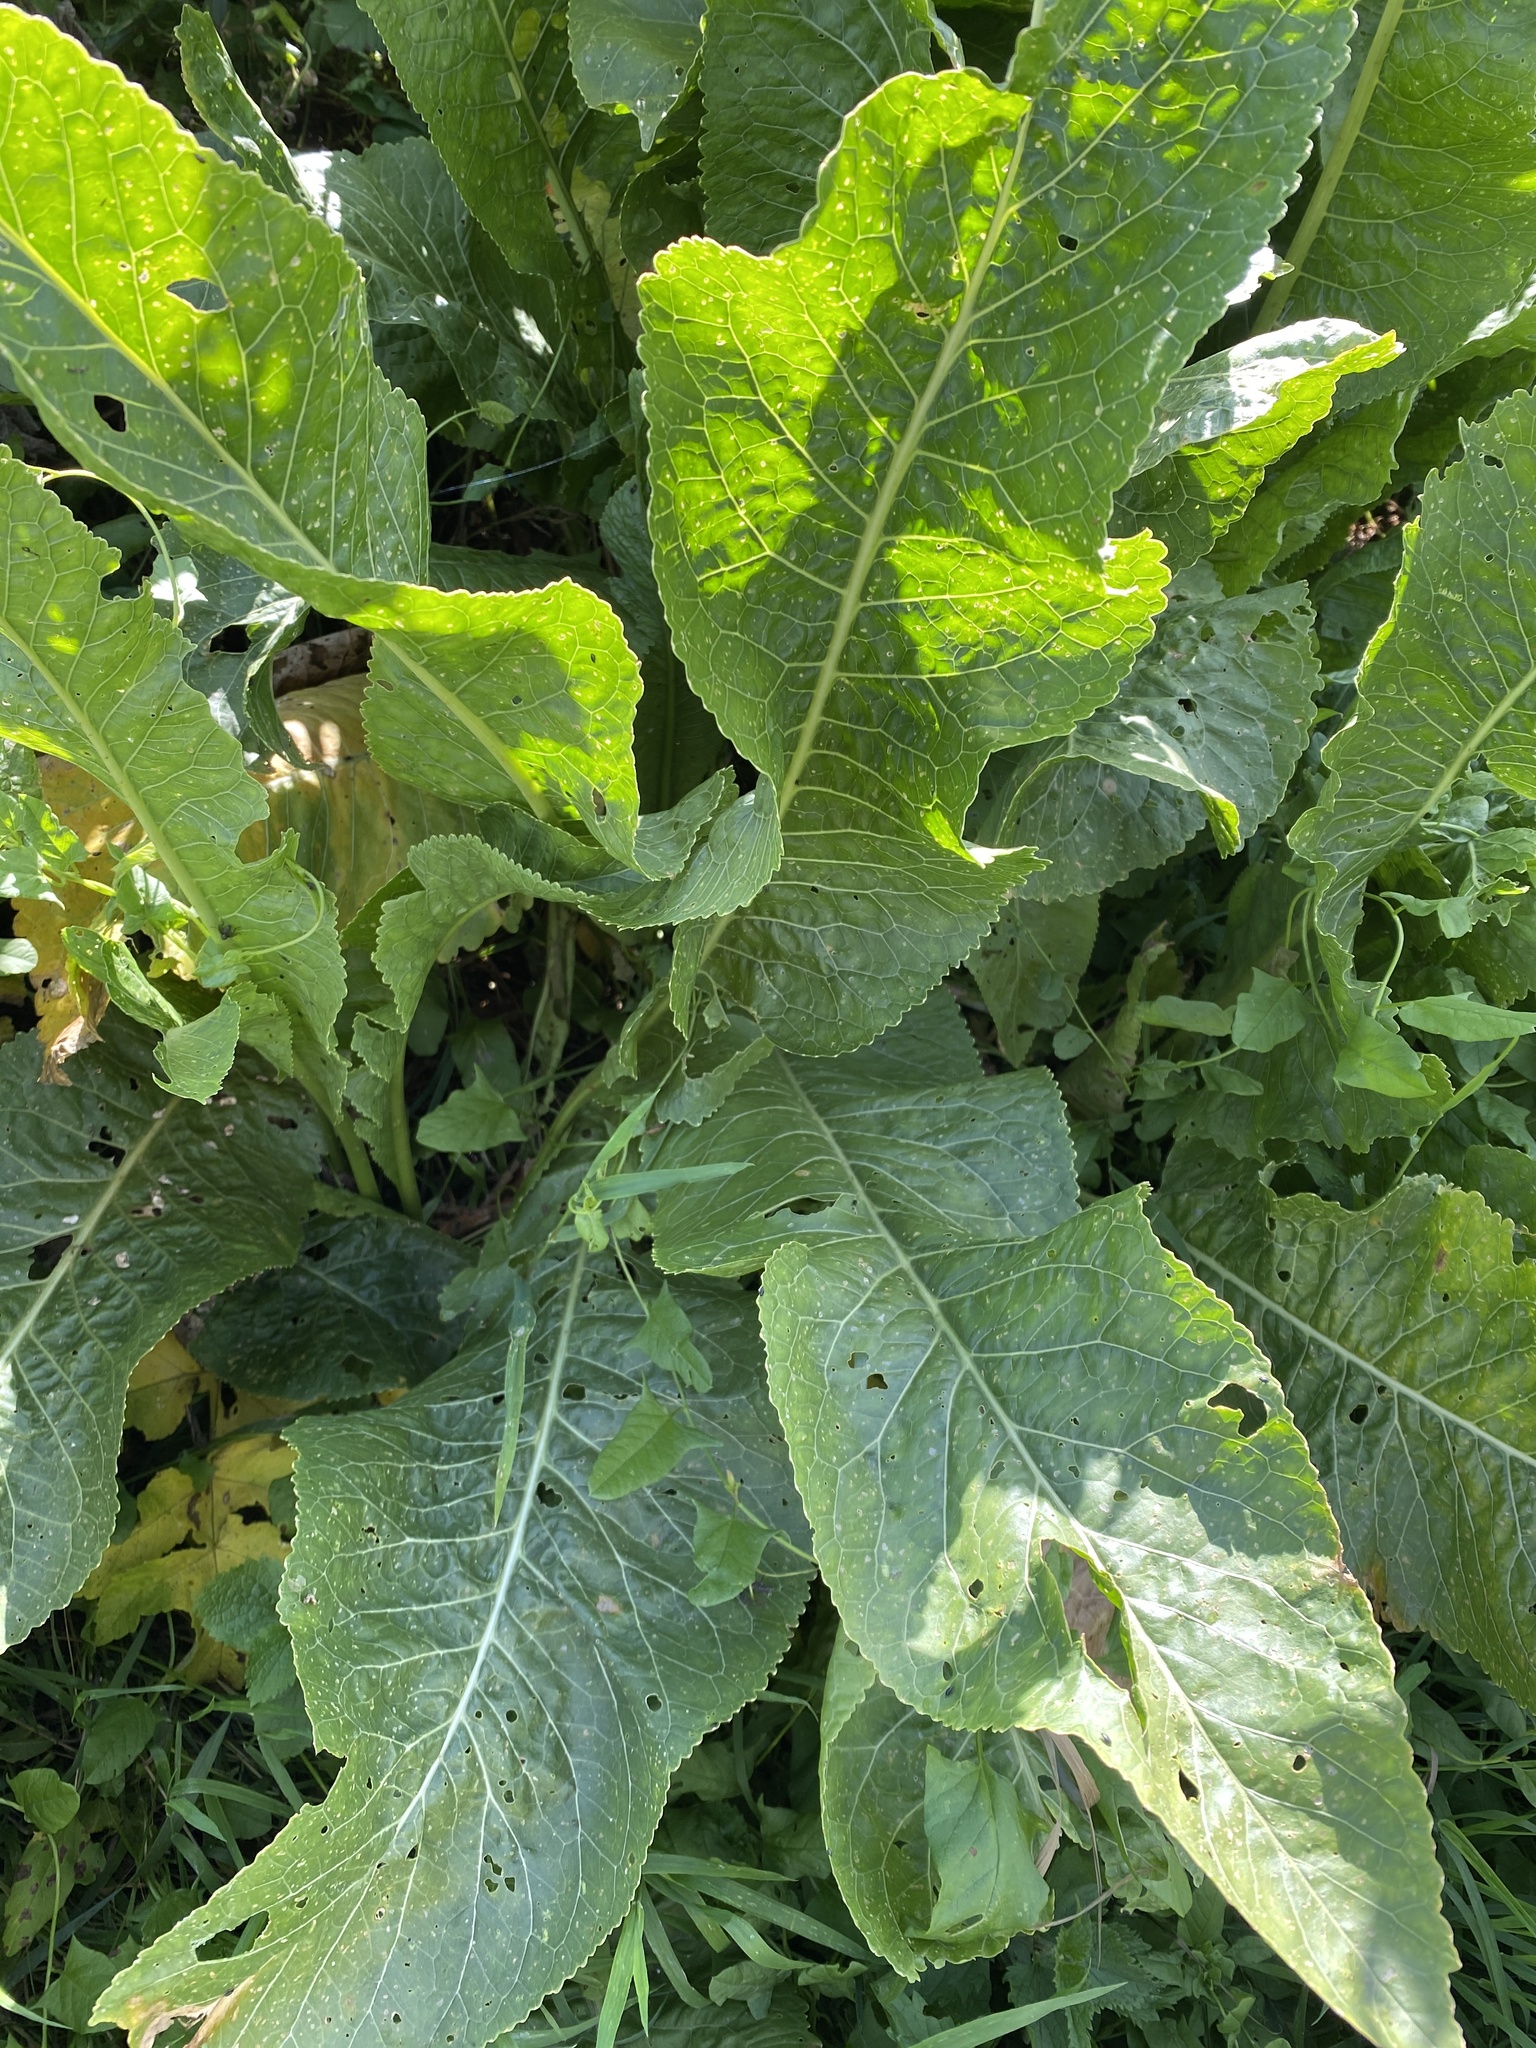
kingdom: Plantae
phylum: Tracheophyta
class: Magnoliopsida
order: Brassicales
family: Brassicaceae
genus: Armoracia
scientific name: Armoracia rusticana
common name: Horseradish
